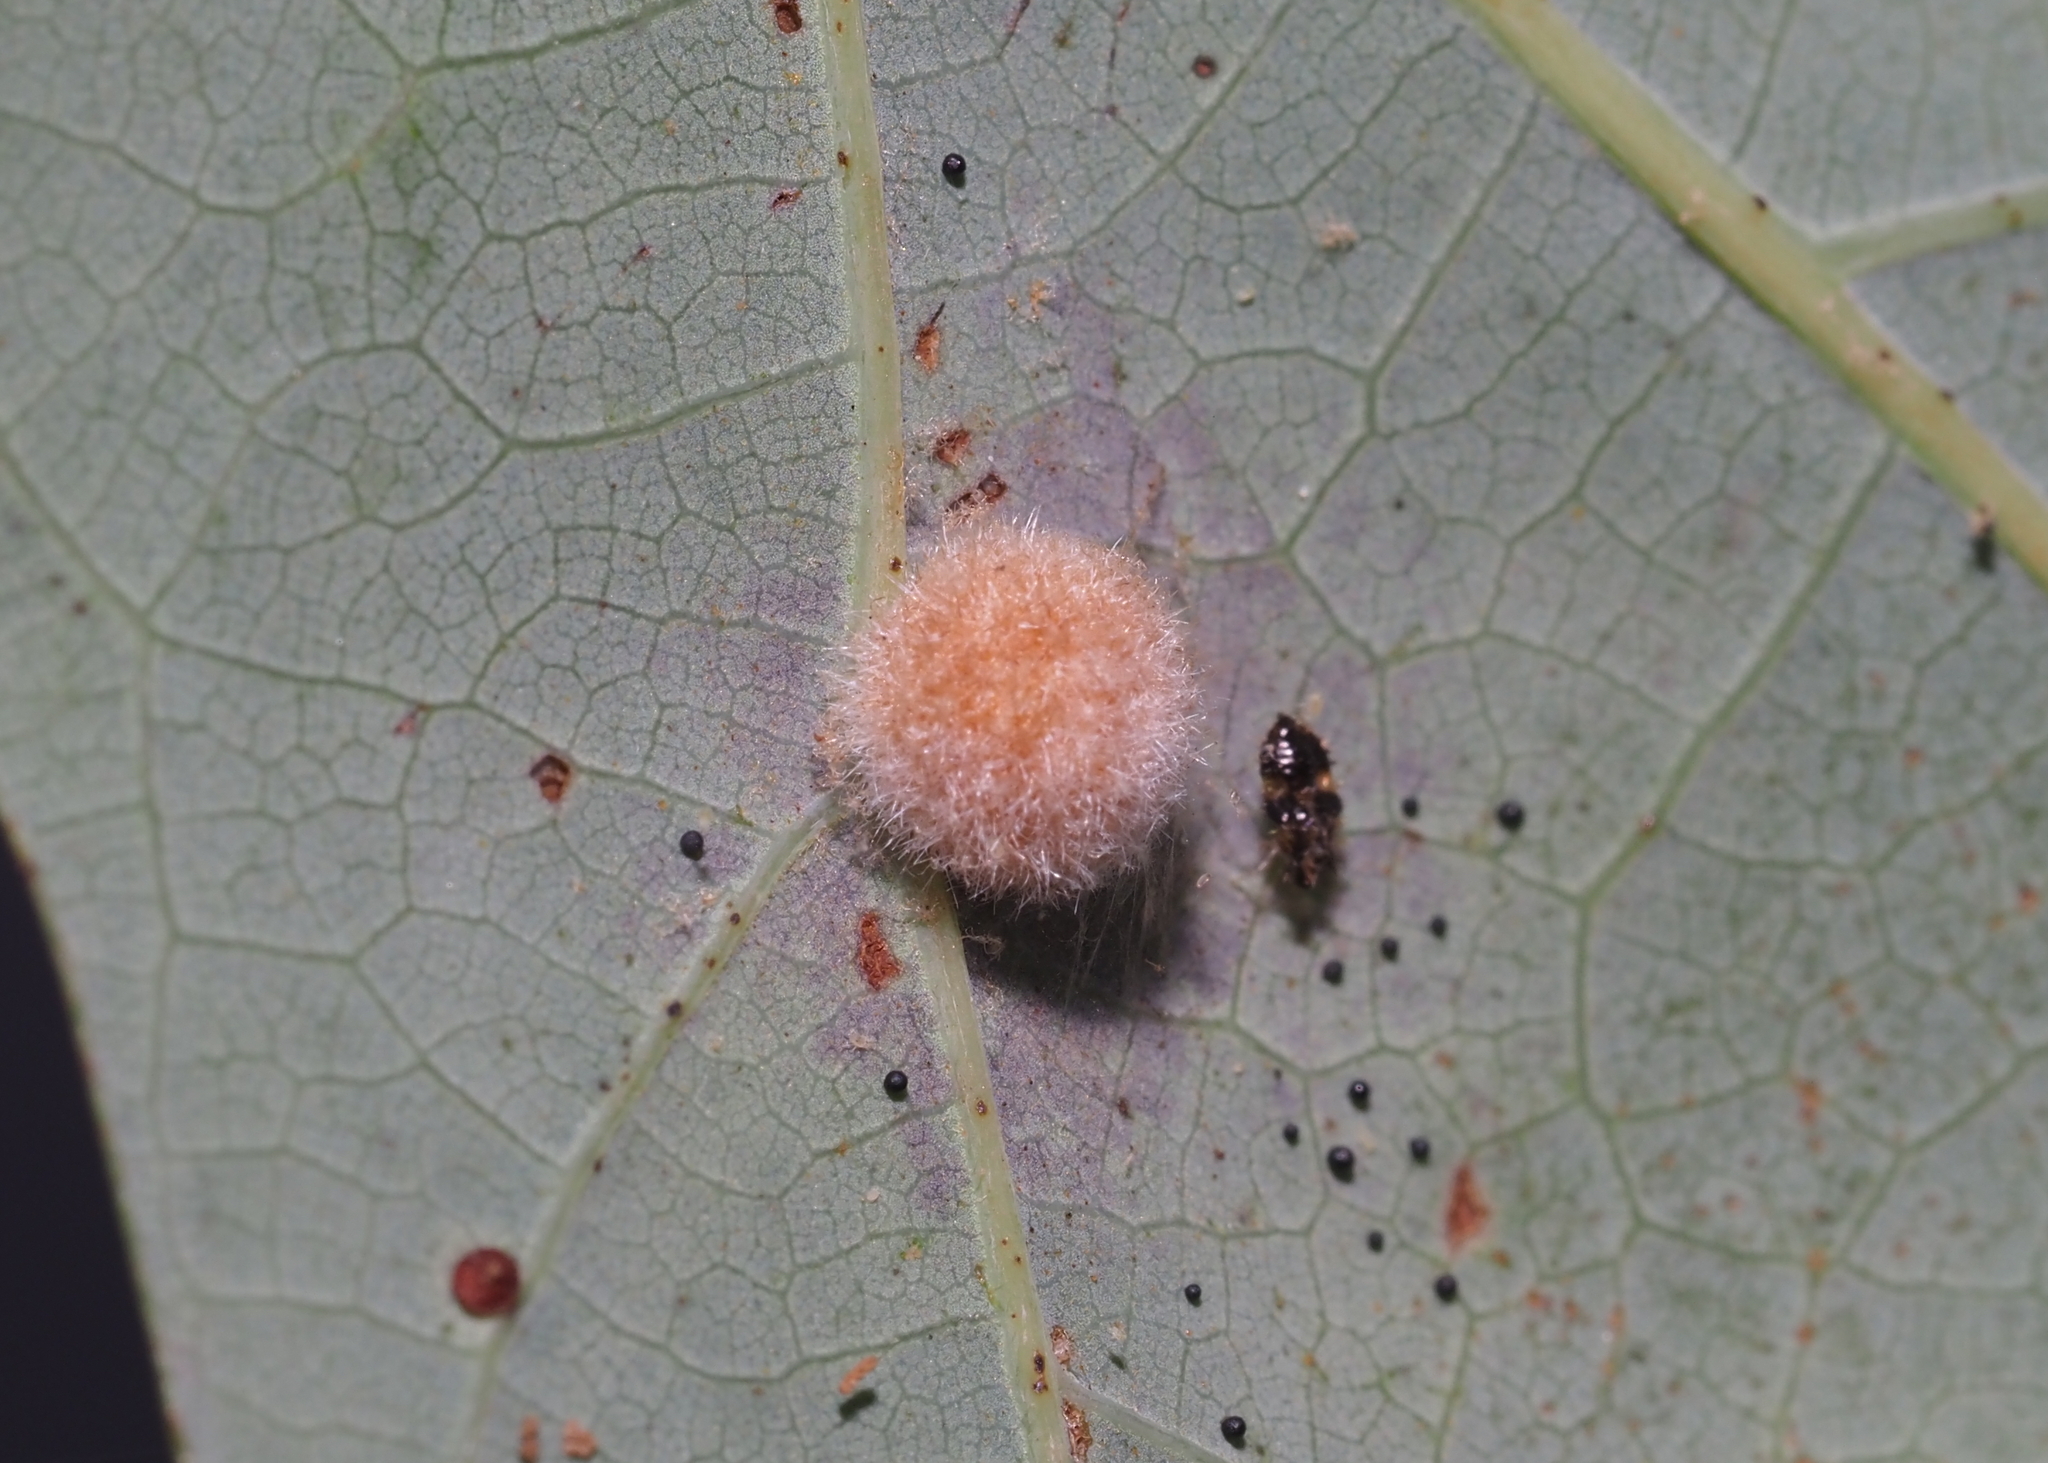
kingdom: Animalia
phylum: Arthropoda
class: Insecta
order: Hymenoptera
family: Cynipidae
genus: Philonix
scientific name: Philonix fulvicollis
